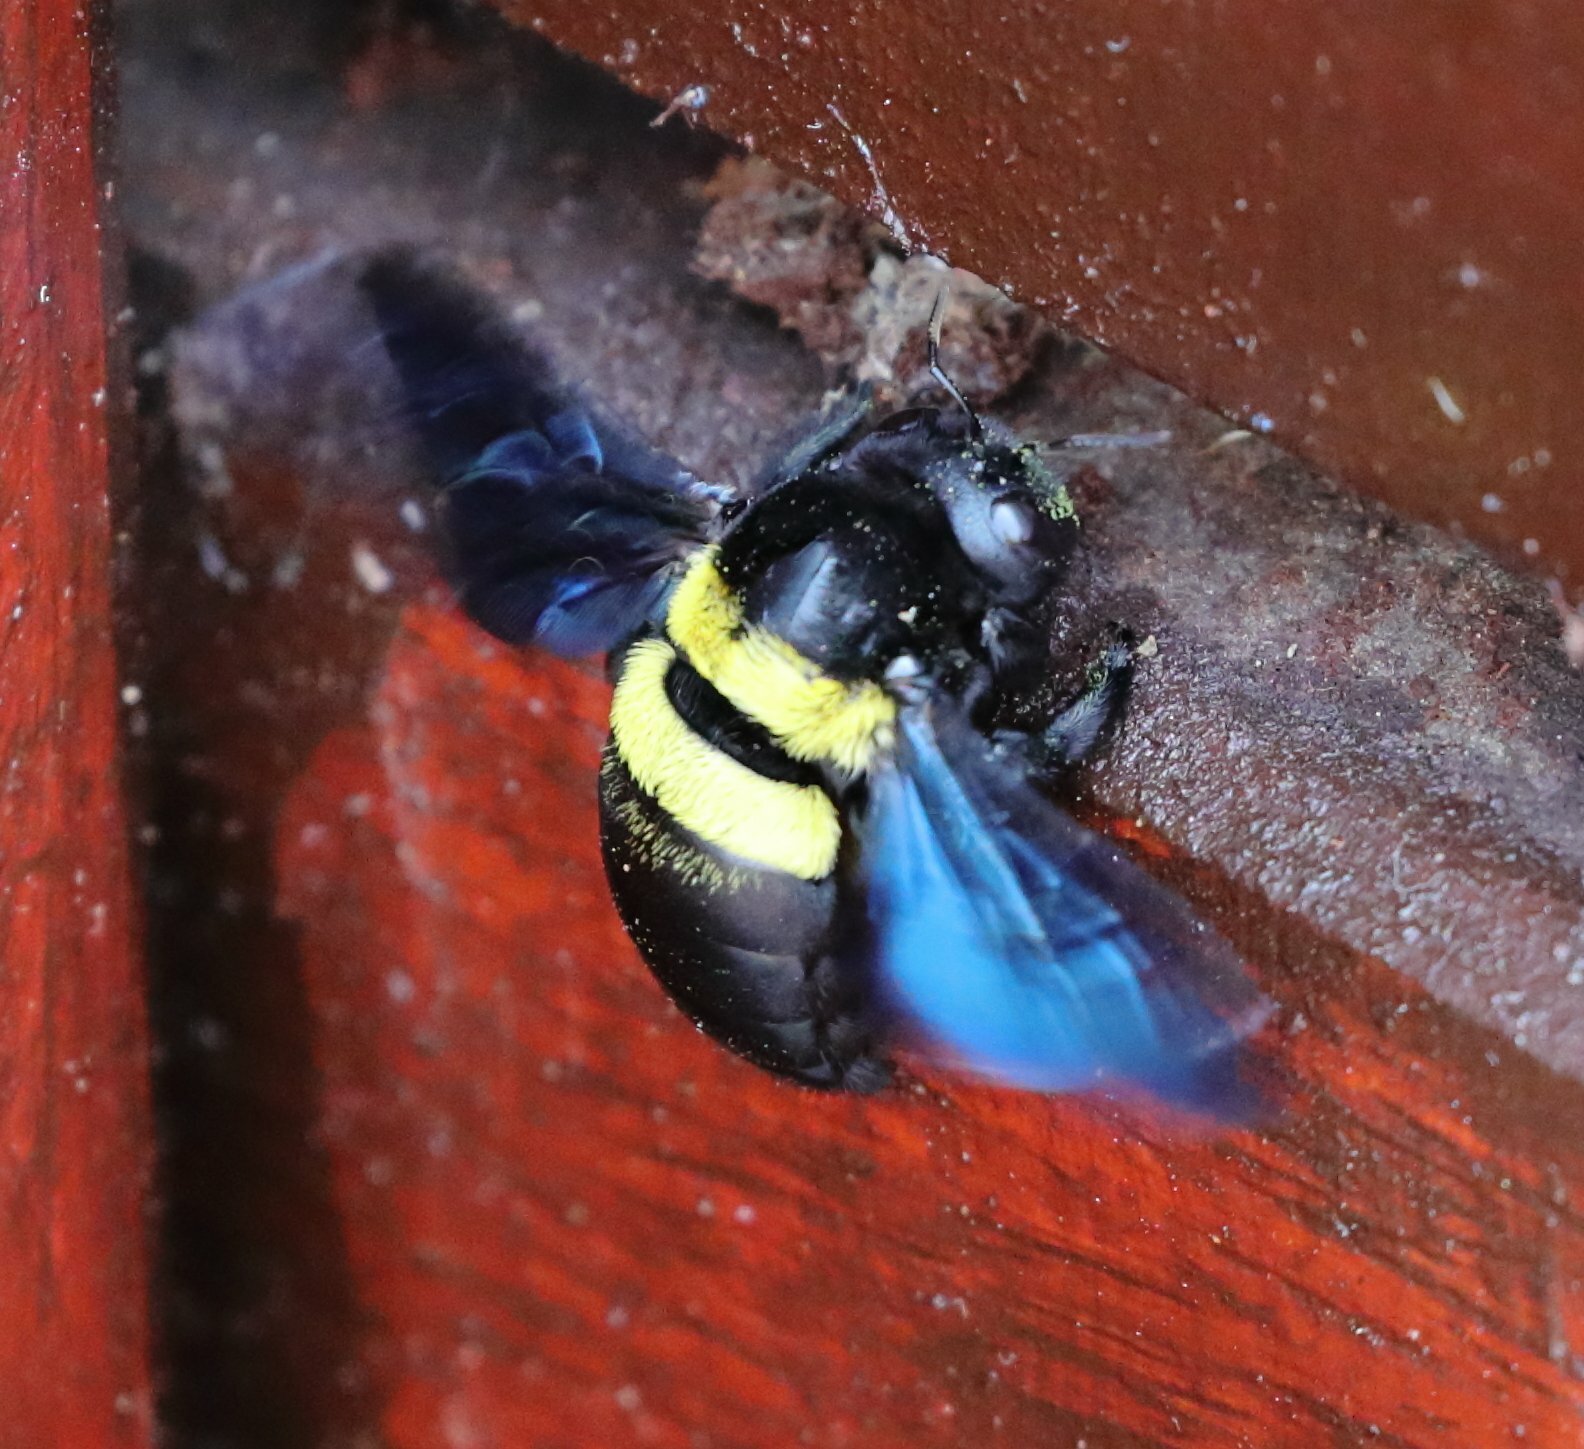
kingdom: Animalia
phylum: Arthropoda
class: Insecta
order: Hymenoptera
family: Apidae
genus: Xylocopa
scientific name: Xylocopa caffra
